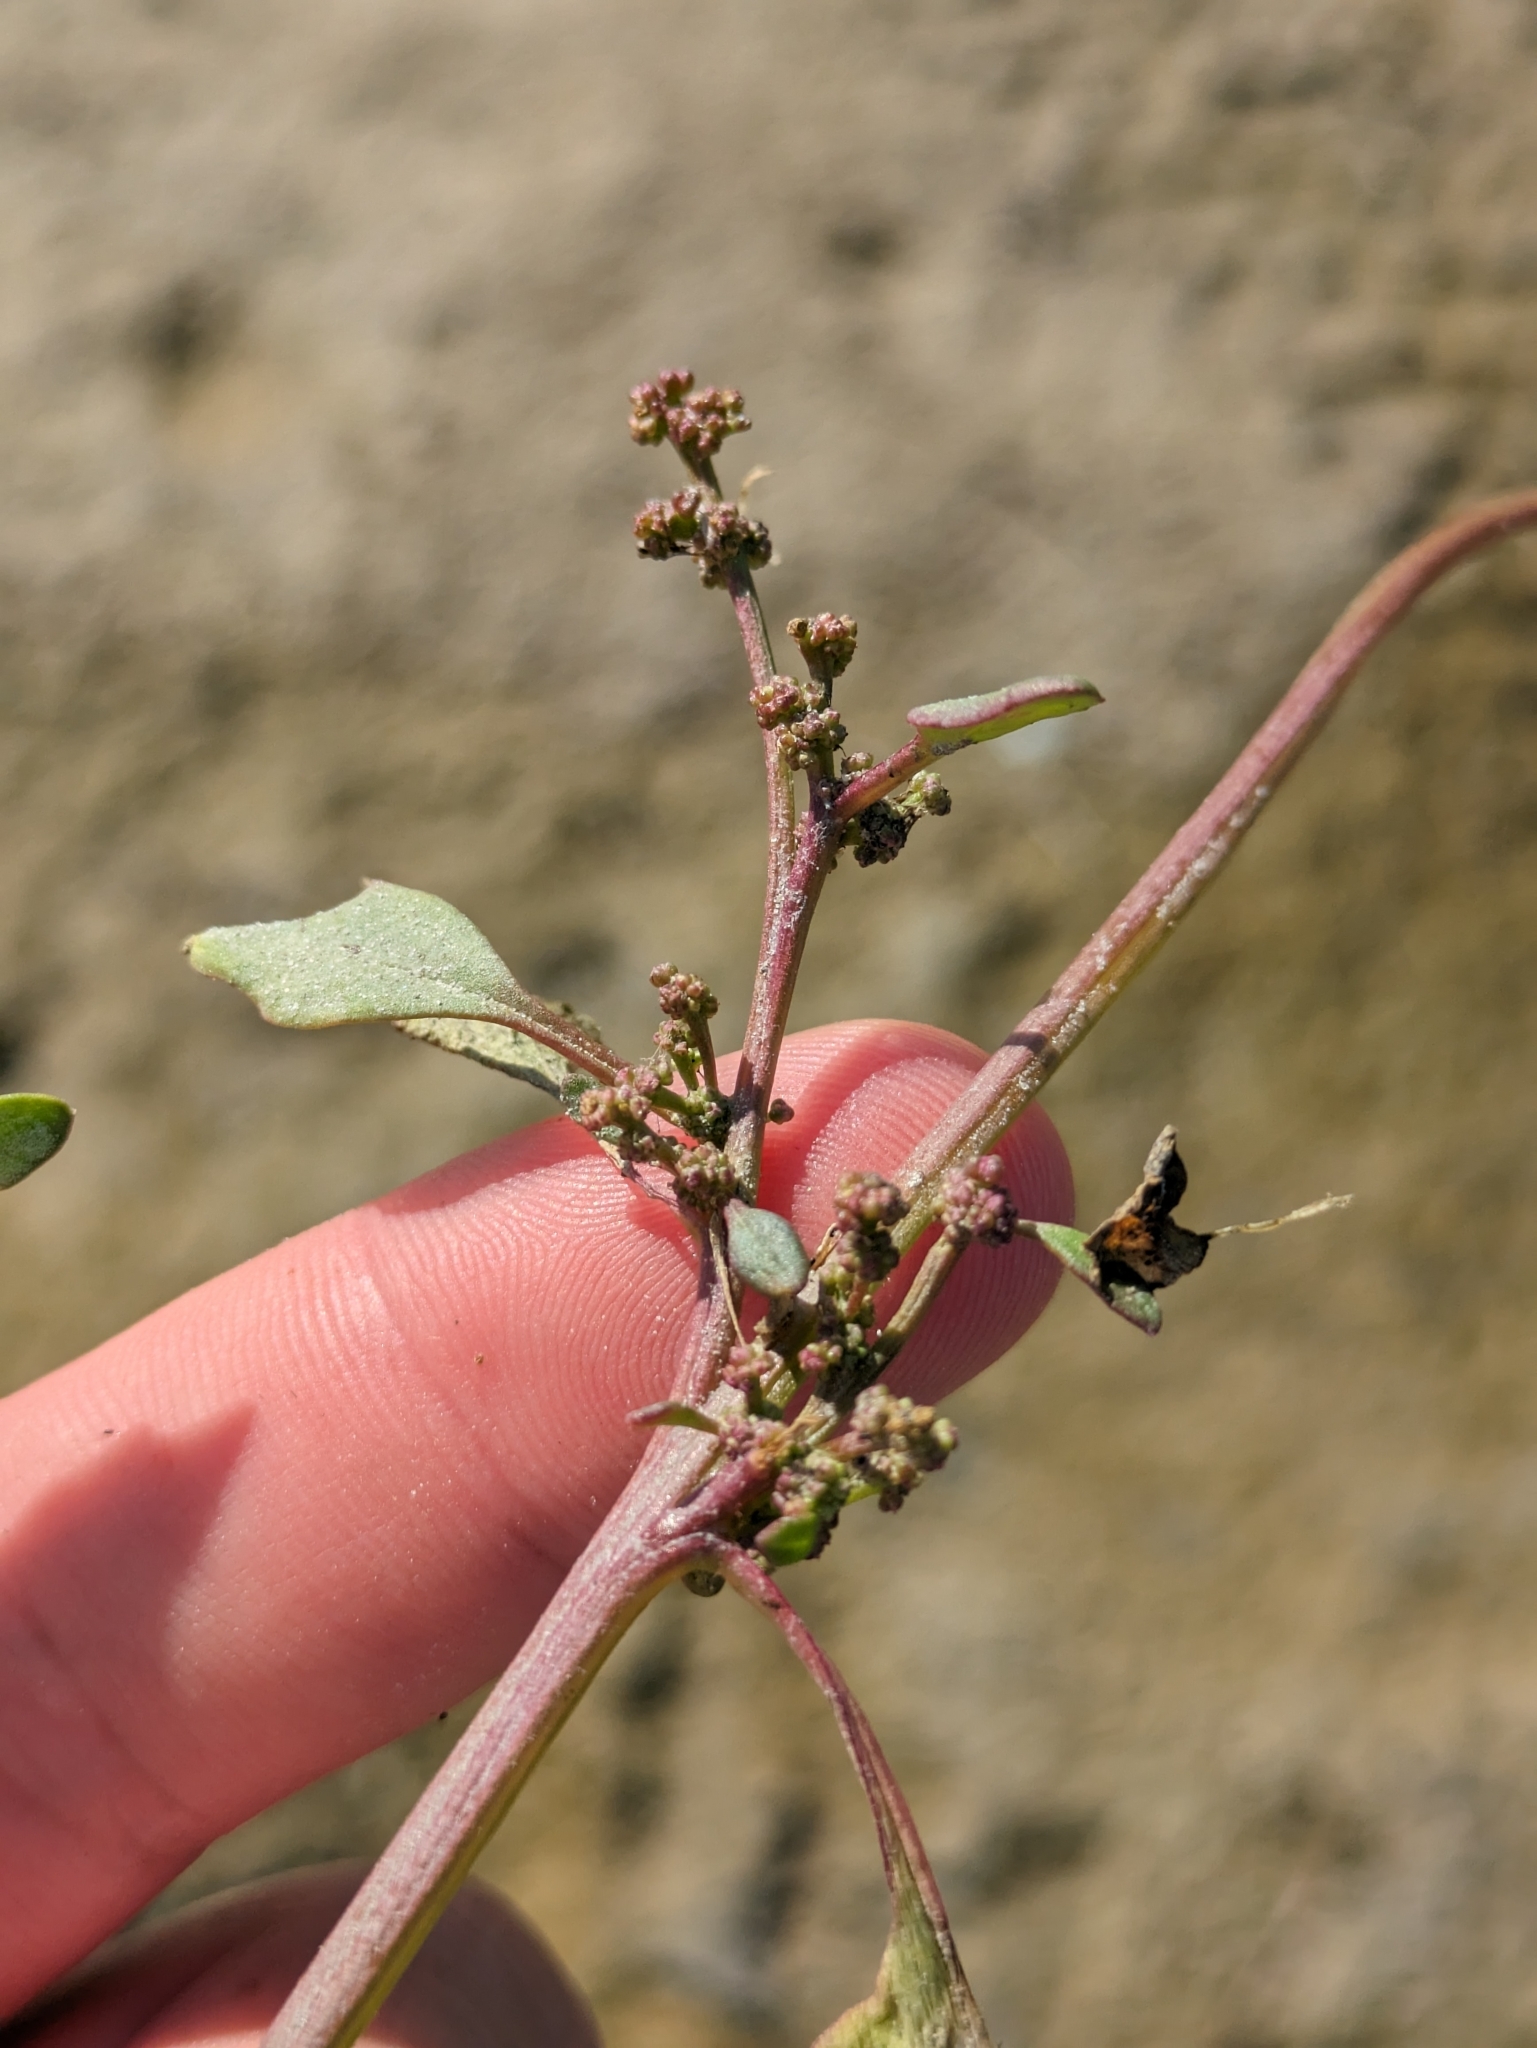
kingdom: Plantae
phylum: Tracheophyta
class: Magnoliopsida
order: Caryophyllales
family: Amaranthaceae
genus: Oxybasis
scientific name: Oxybasis chenopodioides
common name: Saltmarsh goosefoot
